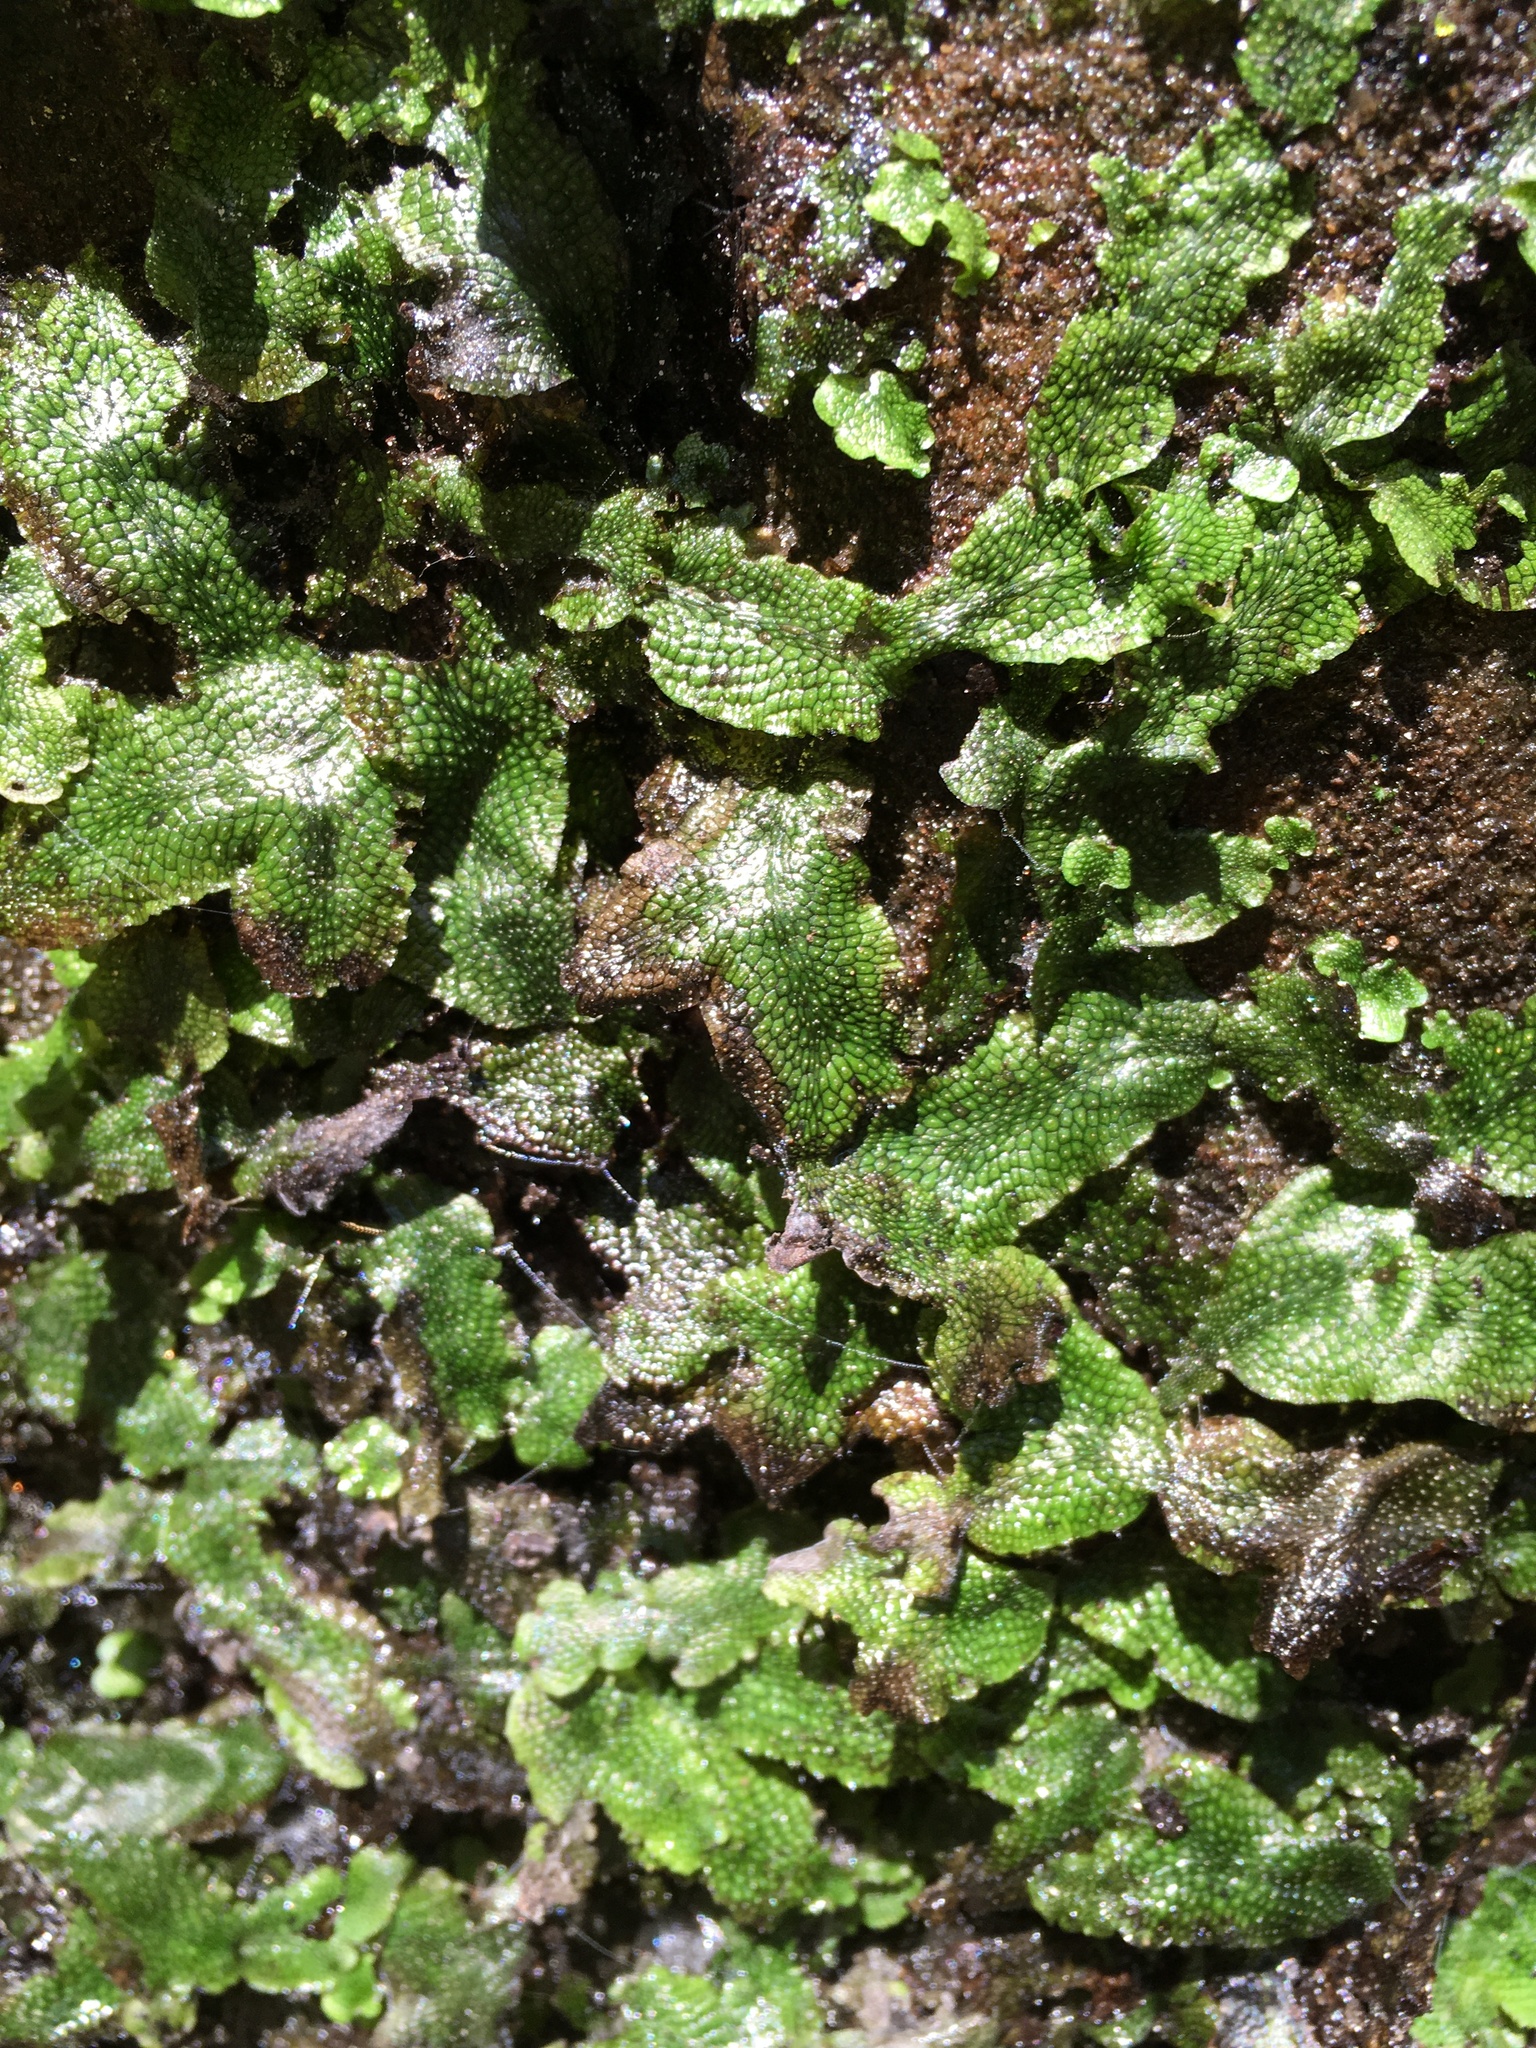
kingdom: Plantae
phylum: Marchantiophyta
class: Marchantiopsida
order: Marchantiales
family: Conocephalaceae
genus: Conocephalum
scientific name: Conocephalum salebrosum
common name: Cat-tongue liverwort
